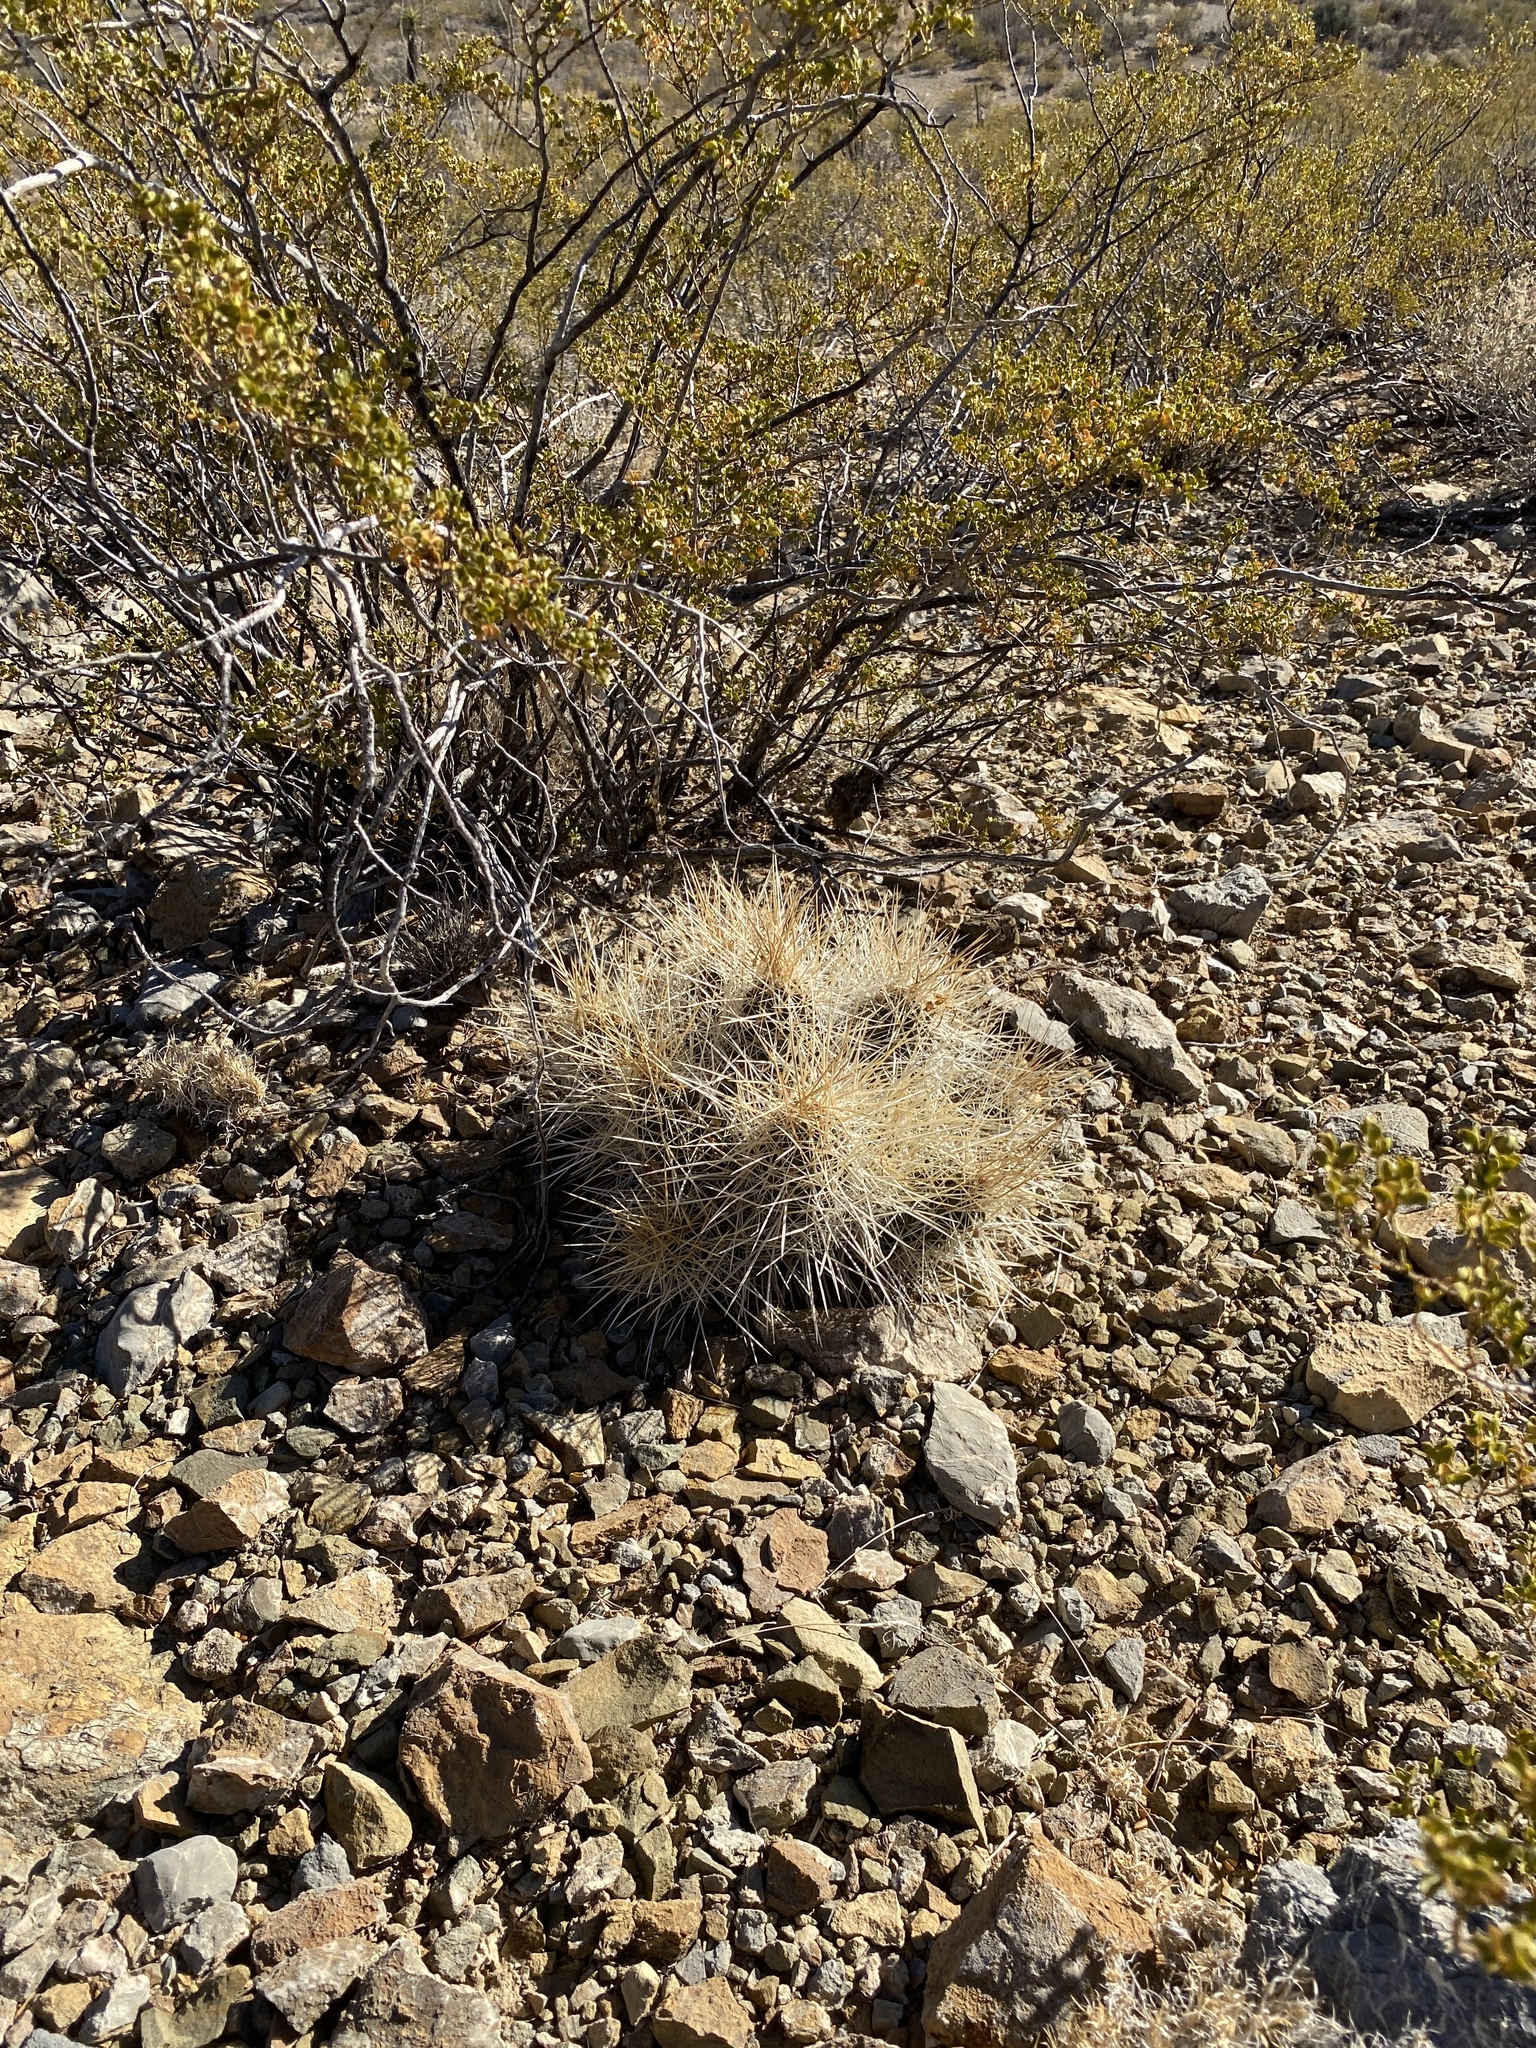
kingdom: Plantae
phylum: Tracheophyta
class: Magnoliopsida
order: Caryophyllales
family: Cactaceae
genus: Echinocereus
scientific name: Echinocereus stramineus
